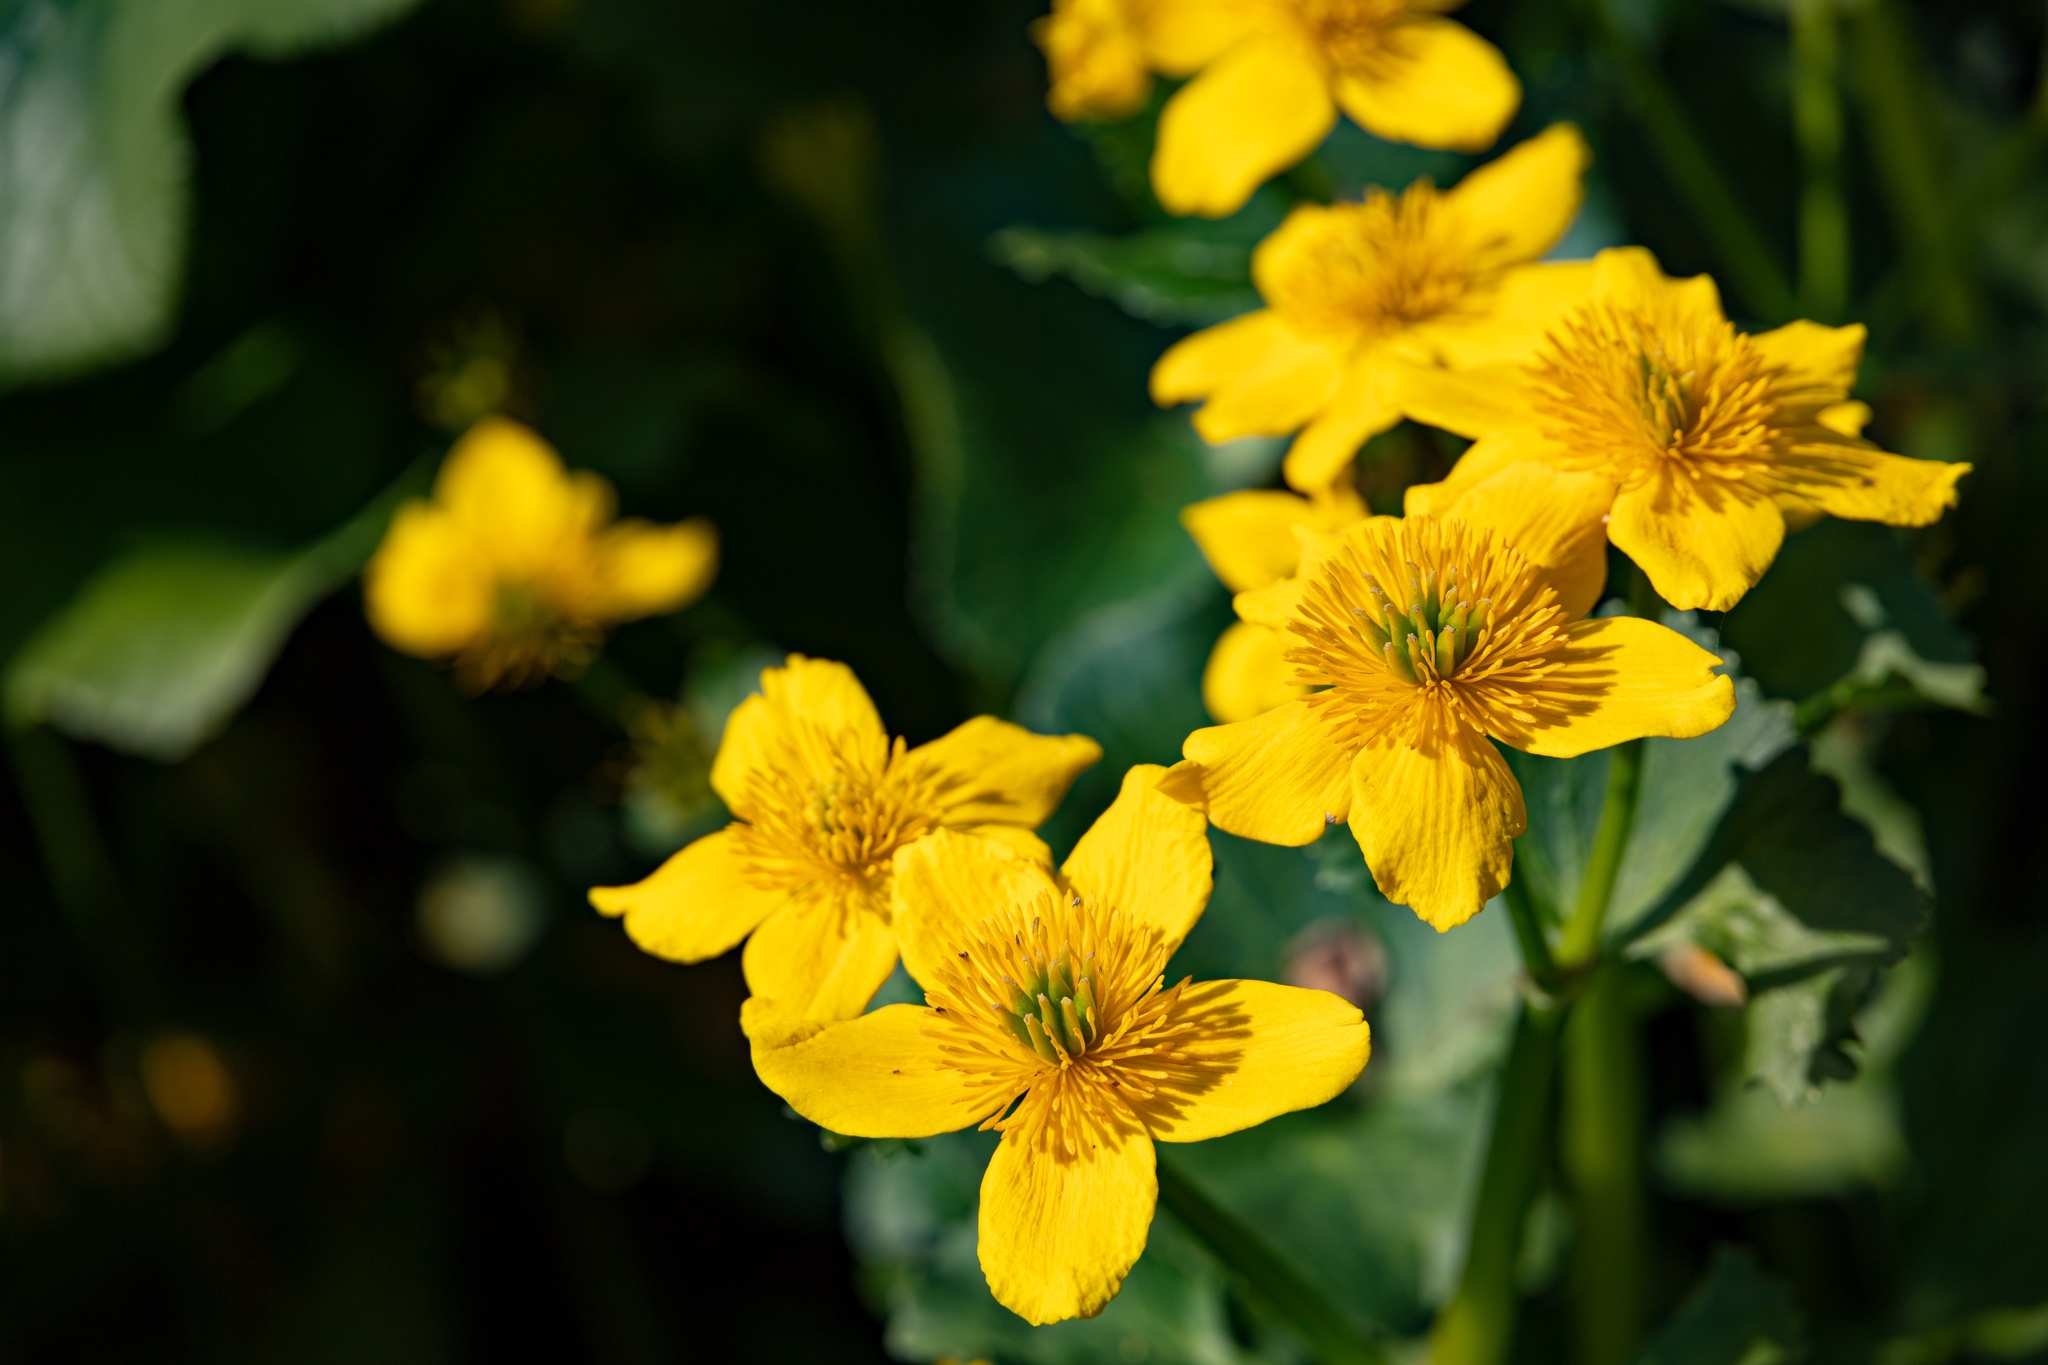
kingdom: Plantae
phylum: Tracheophyta
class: Magnoliopsida
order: Ranunculales
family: Ranunculaceae
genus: Caltha
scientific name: Caltha palustris
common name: Marsh marigold
